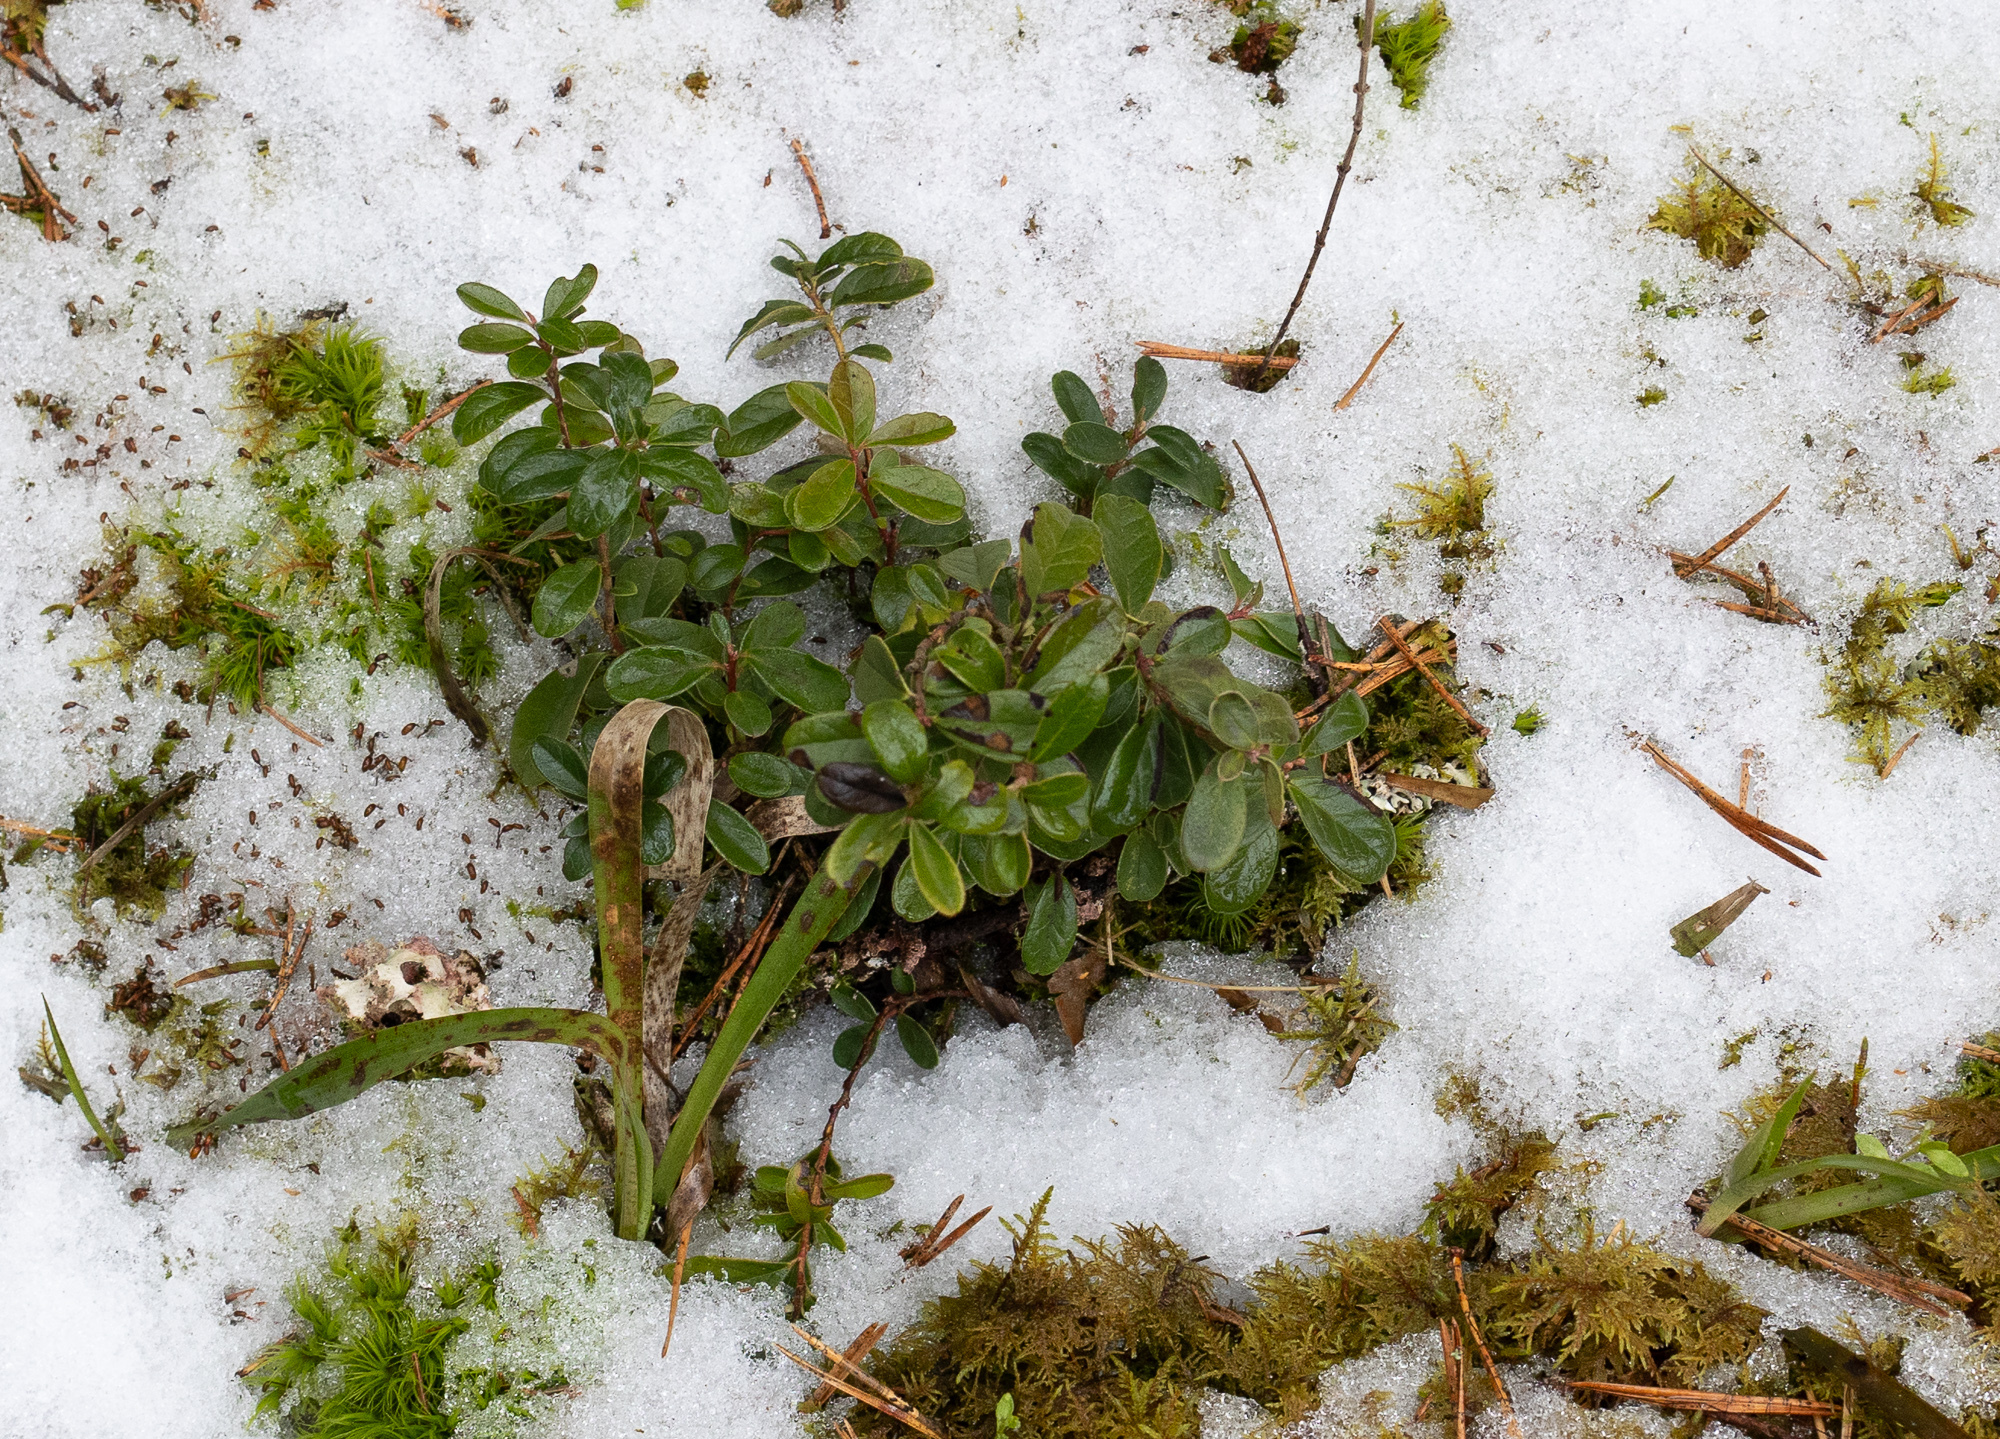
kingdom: Plantae
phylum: Tracheophyta
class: Magnoliopsida
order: Ericales
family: Ericaceae
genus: Vaccinium
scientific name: Vaccinium vitis-idaea
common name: Cowberry
